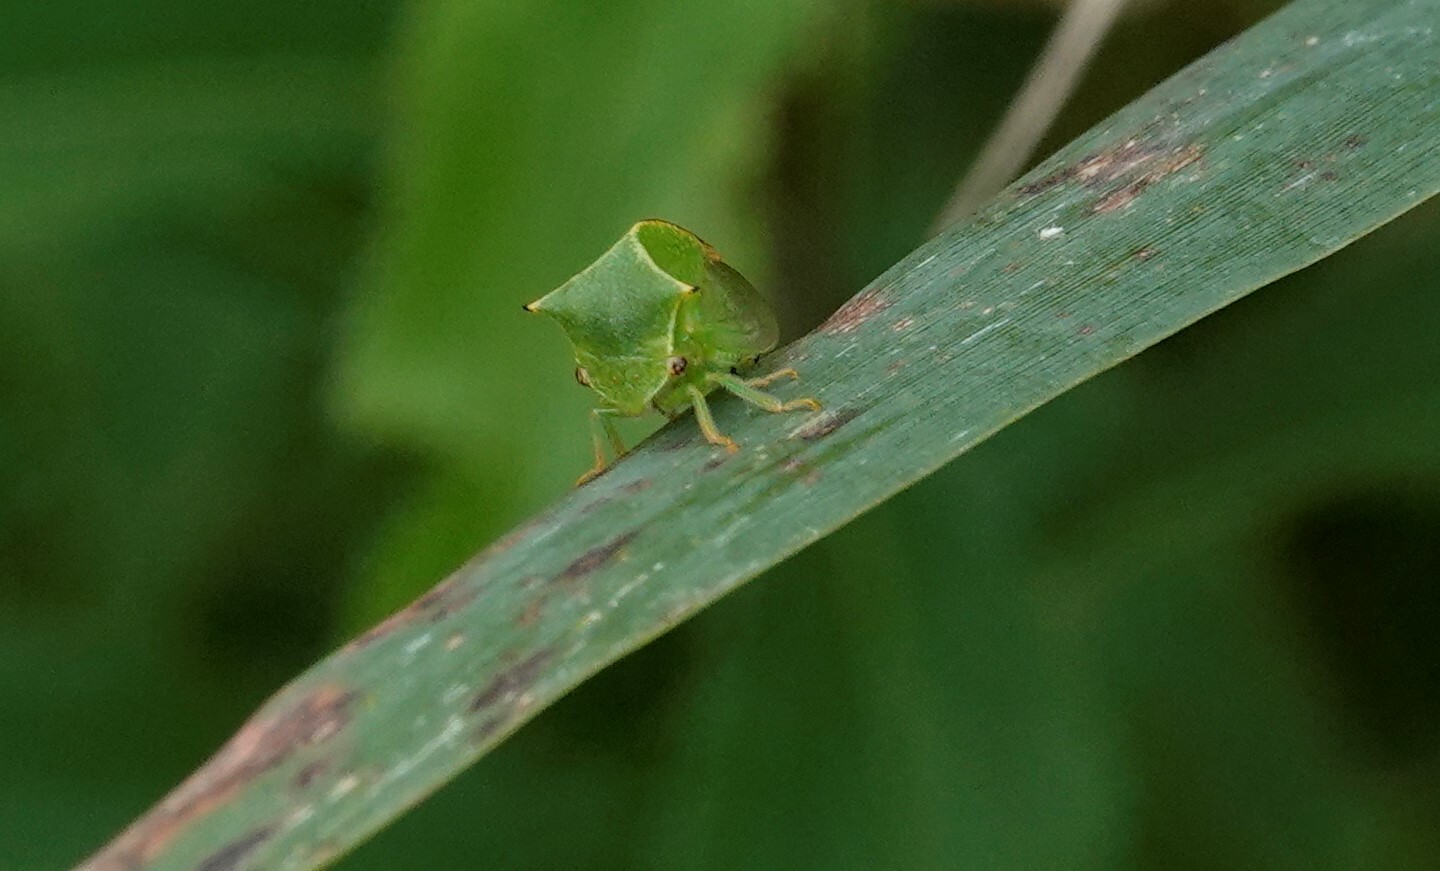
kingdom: Animalia
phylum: Arthropoda
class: Insecta
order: Hemiptera
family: Membracidae
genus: Stictocephala
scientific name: Stictocephala bisonia
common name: American buffalo treehopper
